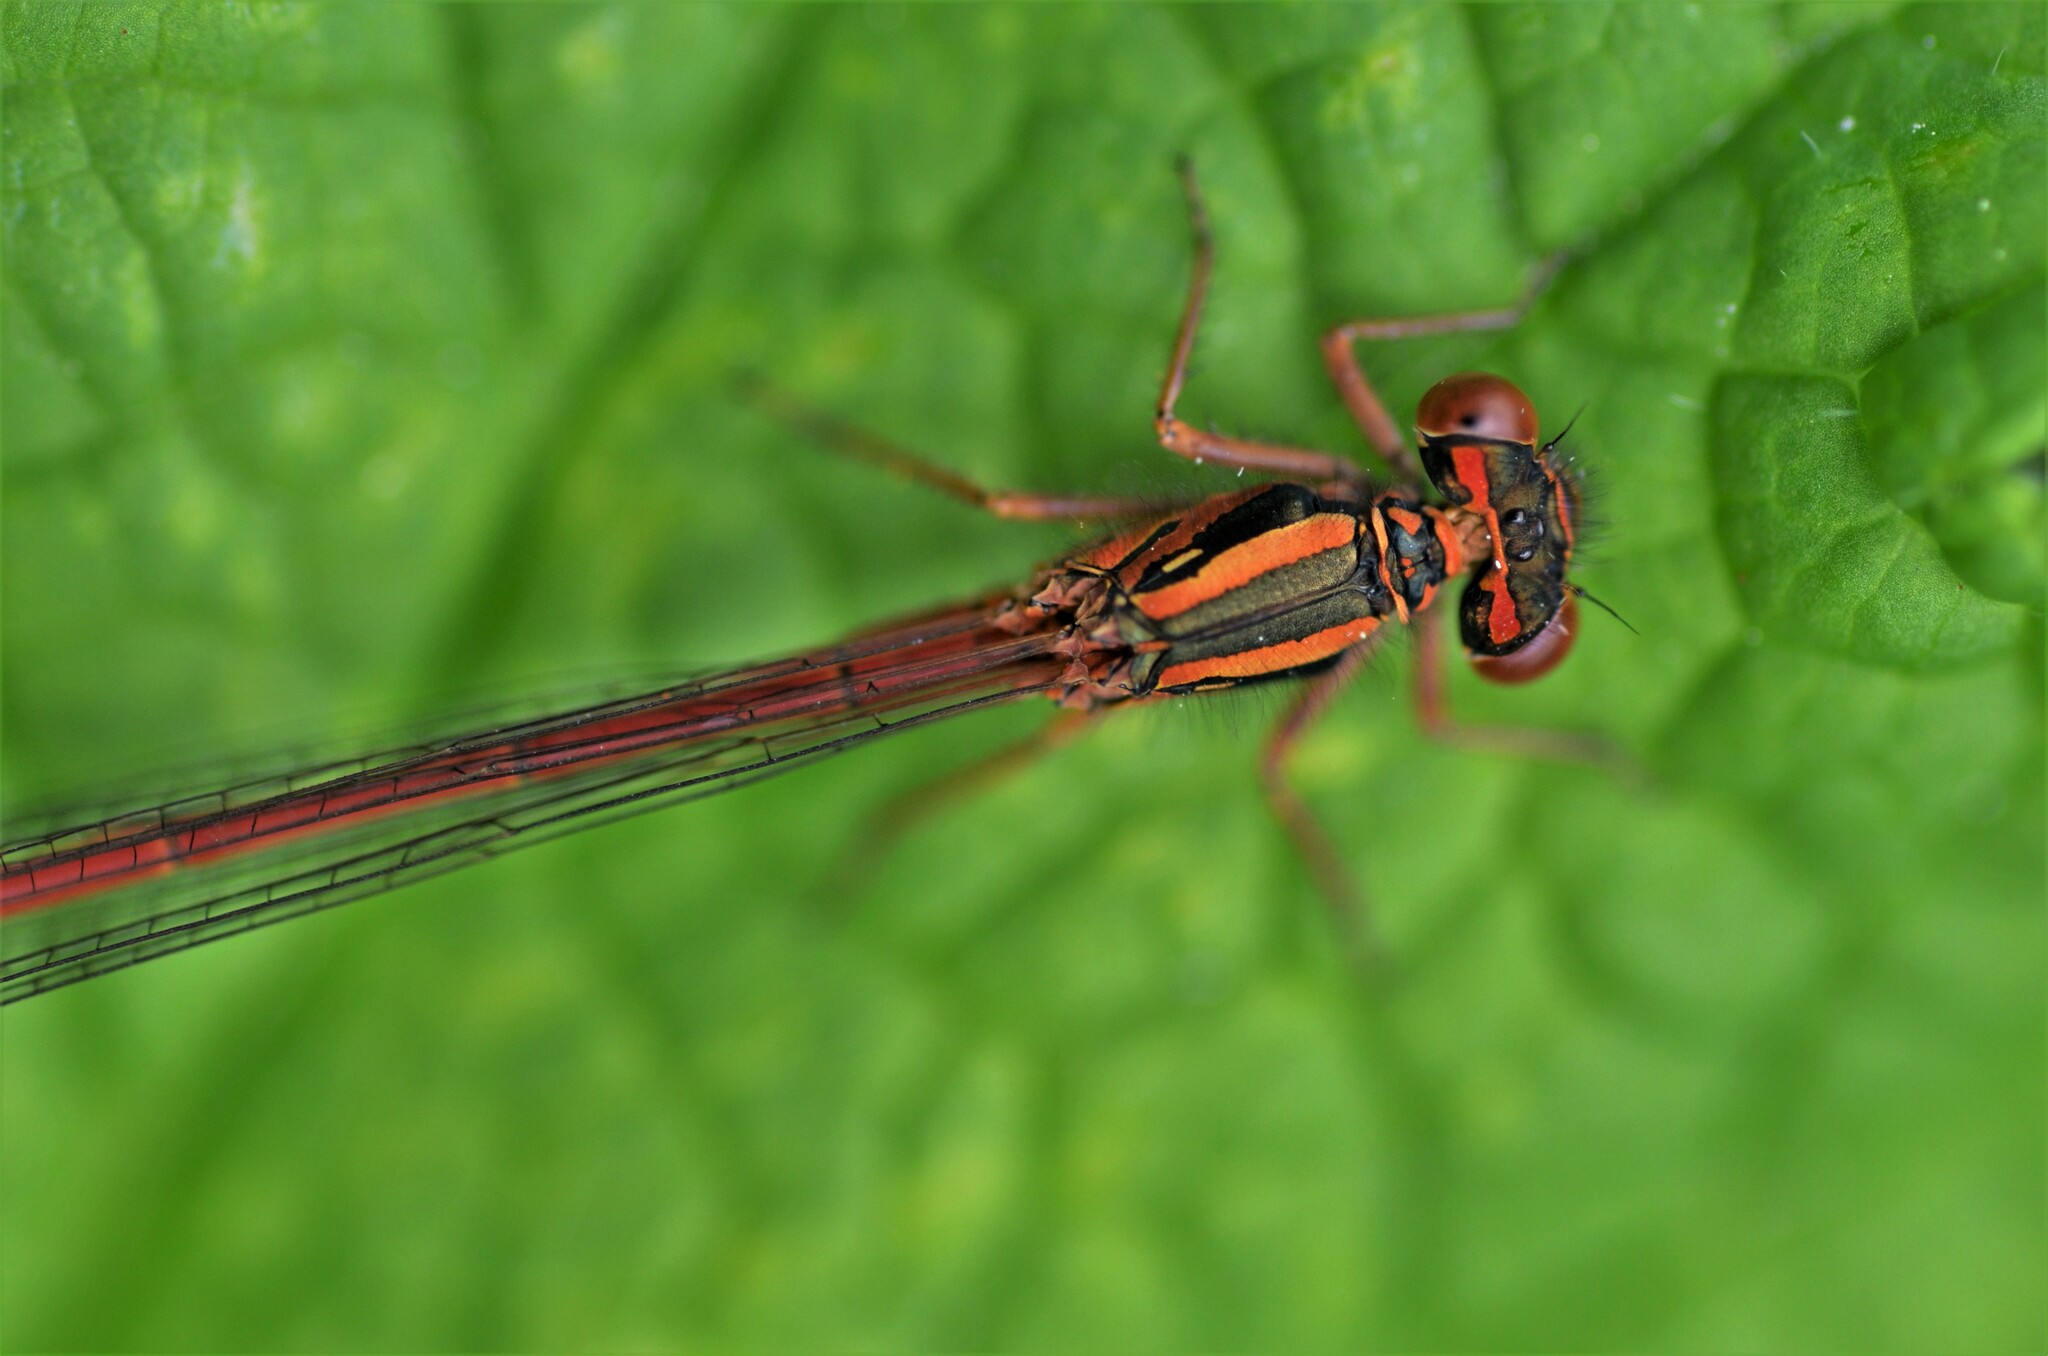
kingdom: Animalia
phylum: Arthropoda
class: Insecta
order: Odonata
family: Coenagrionidae
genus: Xanthocnemis
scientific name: Xanthocnemis zealandica
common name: Common redcoat damselfly
